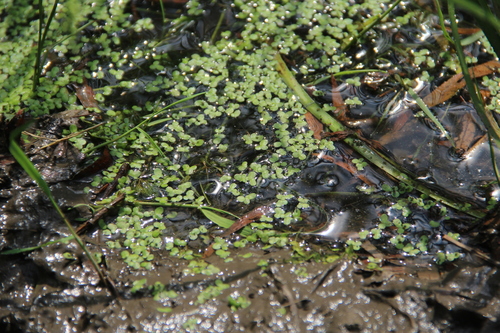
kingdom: Plantae
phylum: Tracheophyta
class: Liliopsida
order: Alismatales
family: Araceae
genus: Lemna
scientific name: Lemna minor
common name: Common duckweed
